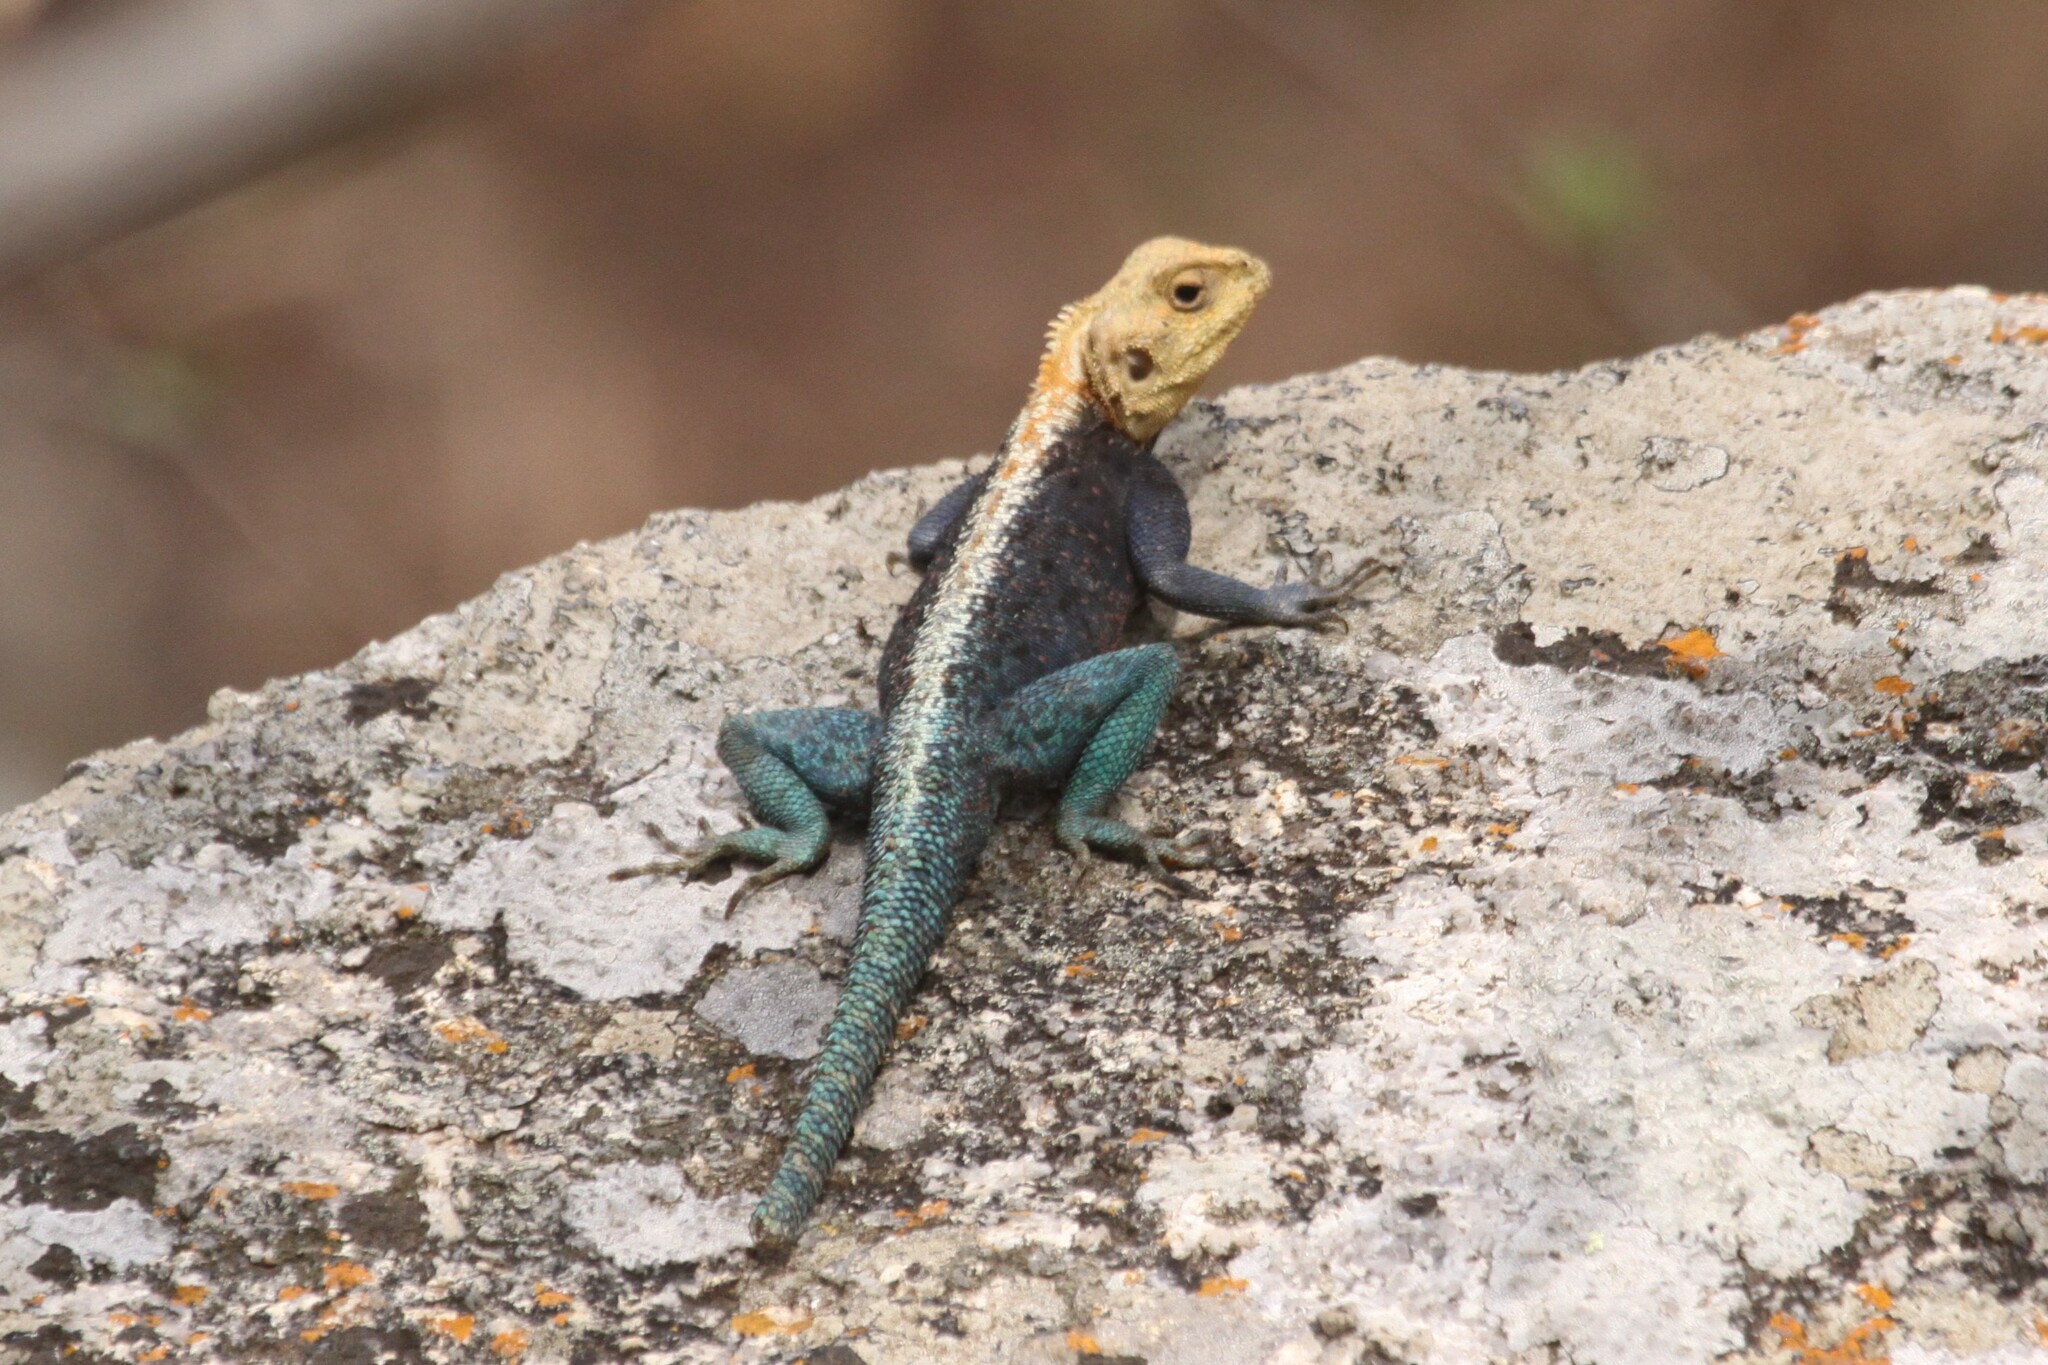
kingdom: Animalia
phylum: Chordata
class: Squamata
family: Agamidae
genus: Agama
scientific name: Agama kirkii
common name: Kirk's rock agama
